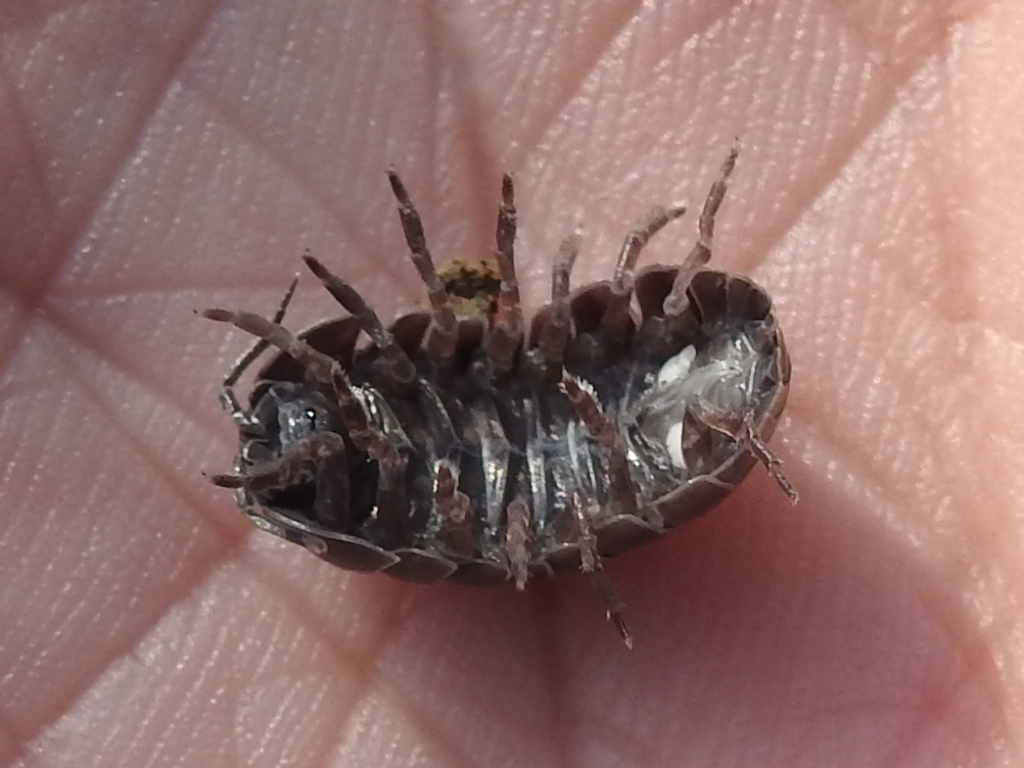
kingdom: Animalia
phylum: Arthropoda
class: Malacostraca
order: Isopoda
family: Armadillidiidae
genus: Armadillidium
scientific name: Armadillidium vulgare
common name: Common pill woodlouse
